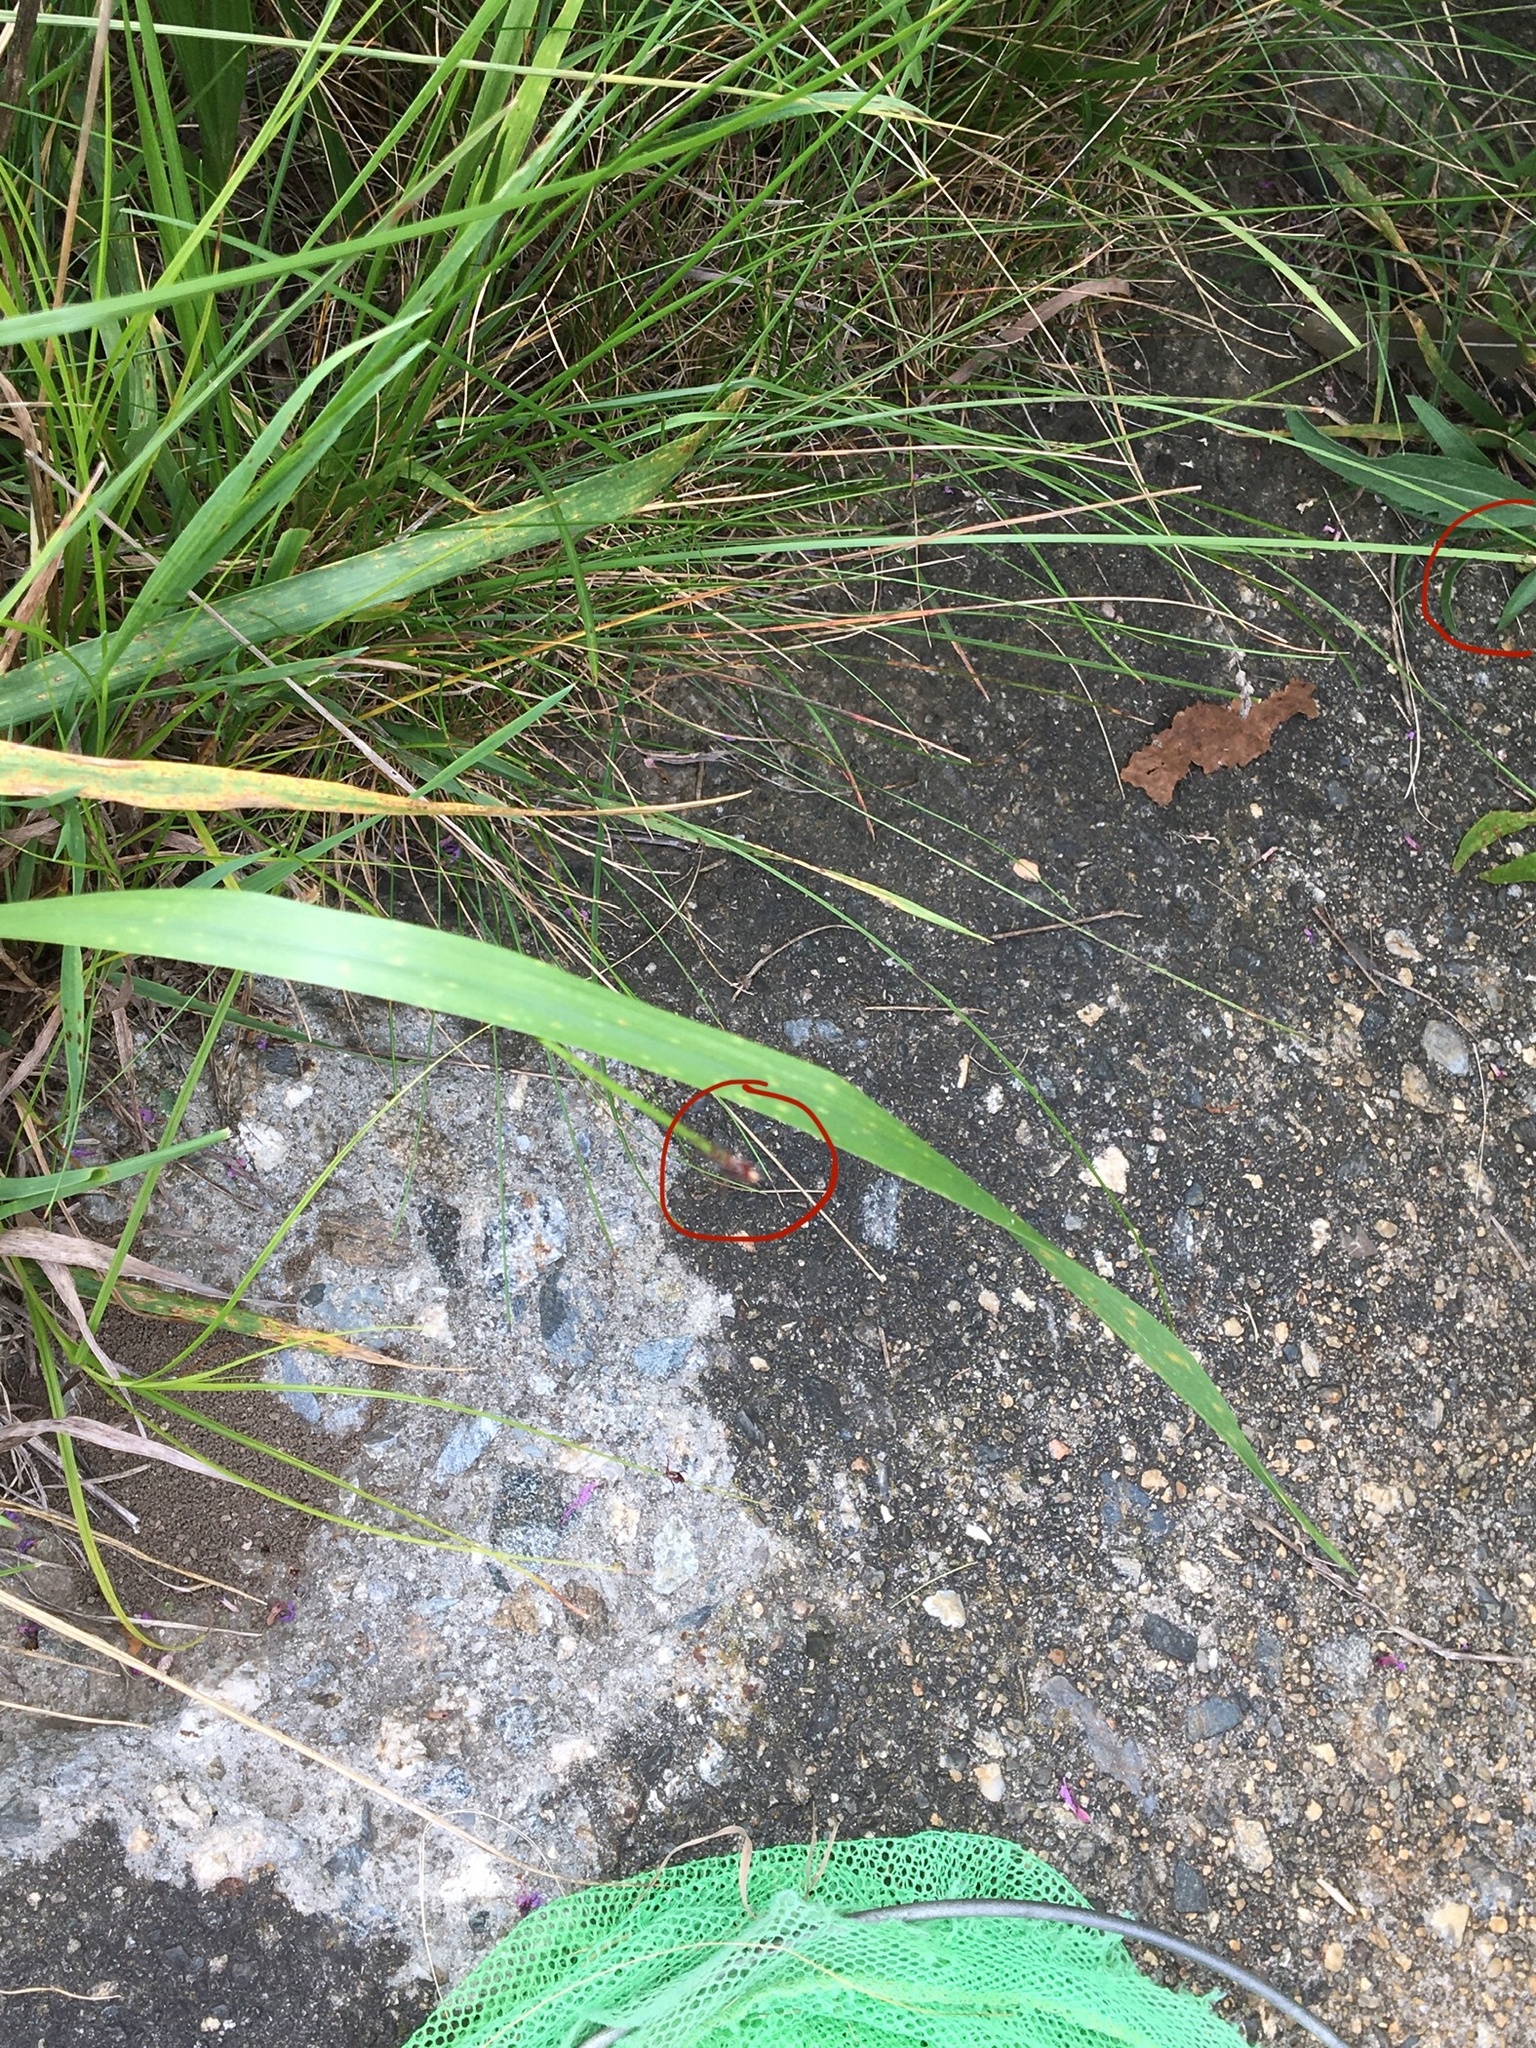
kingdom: Animalia
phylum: Arthropoda
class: Arachnida
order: Ixodida
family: Ixodidae
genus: Dermacentor
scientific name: Dermacentor variabilis
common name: American dog tick
